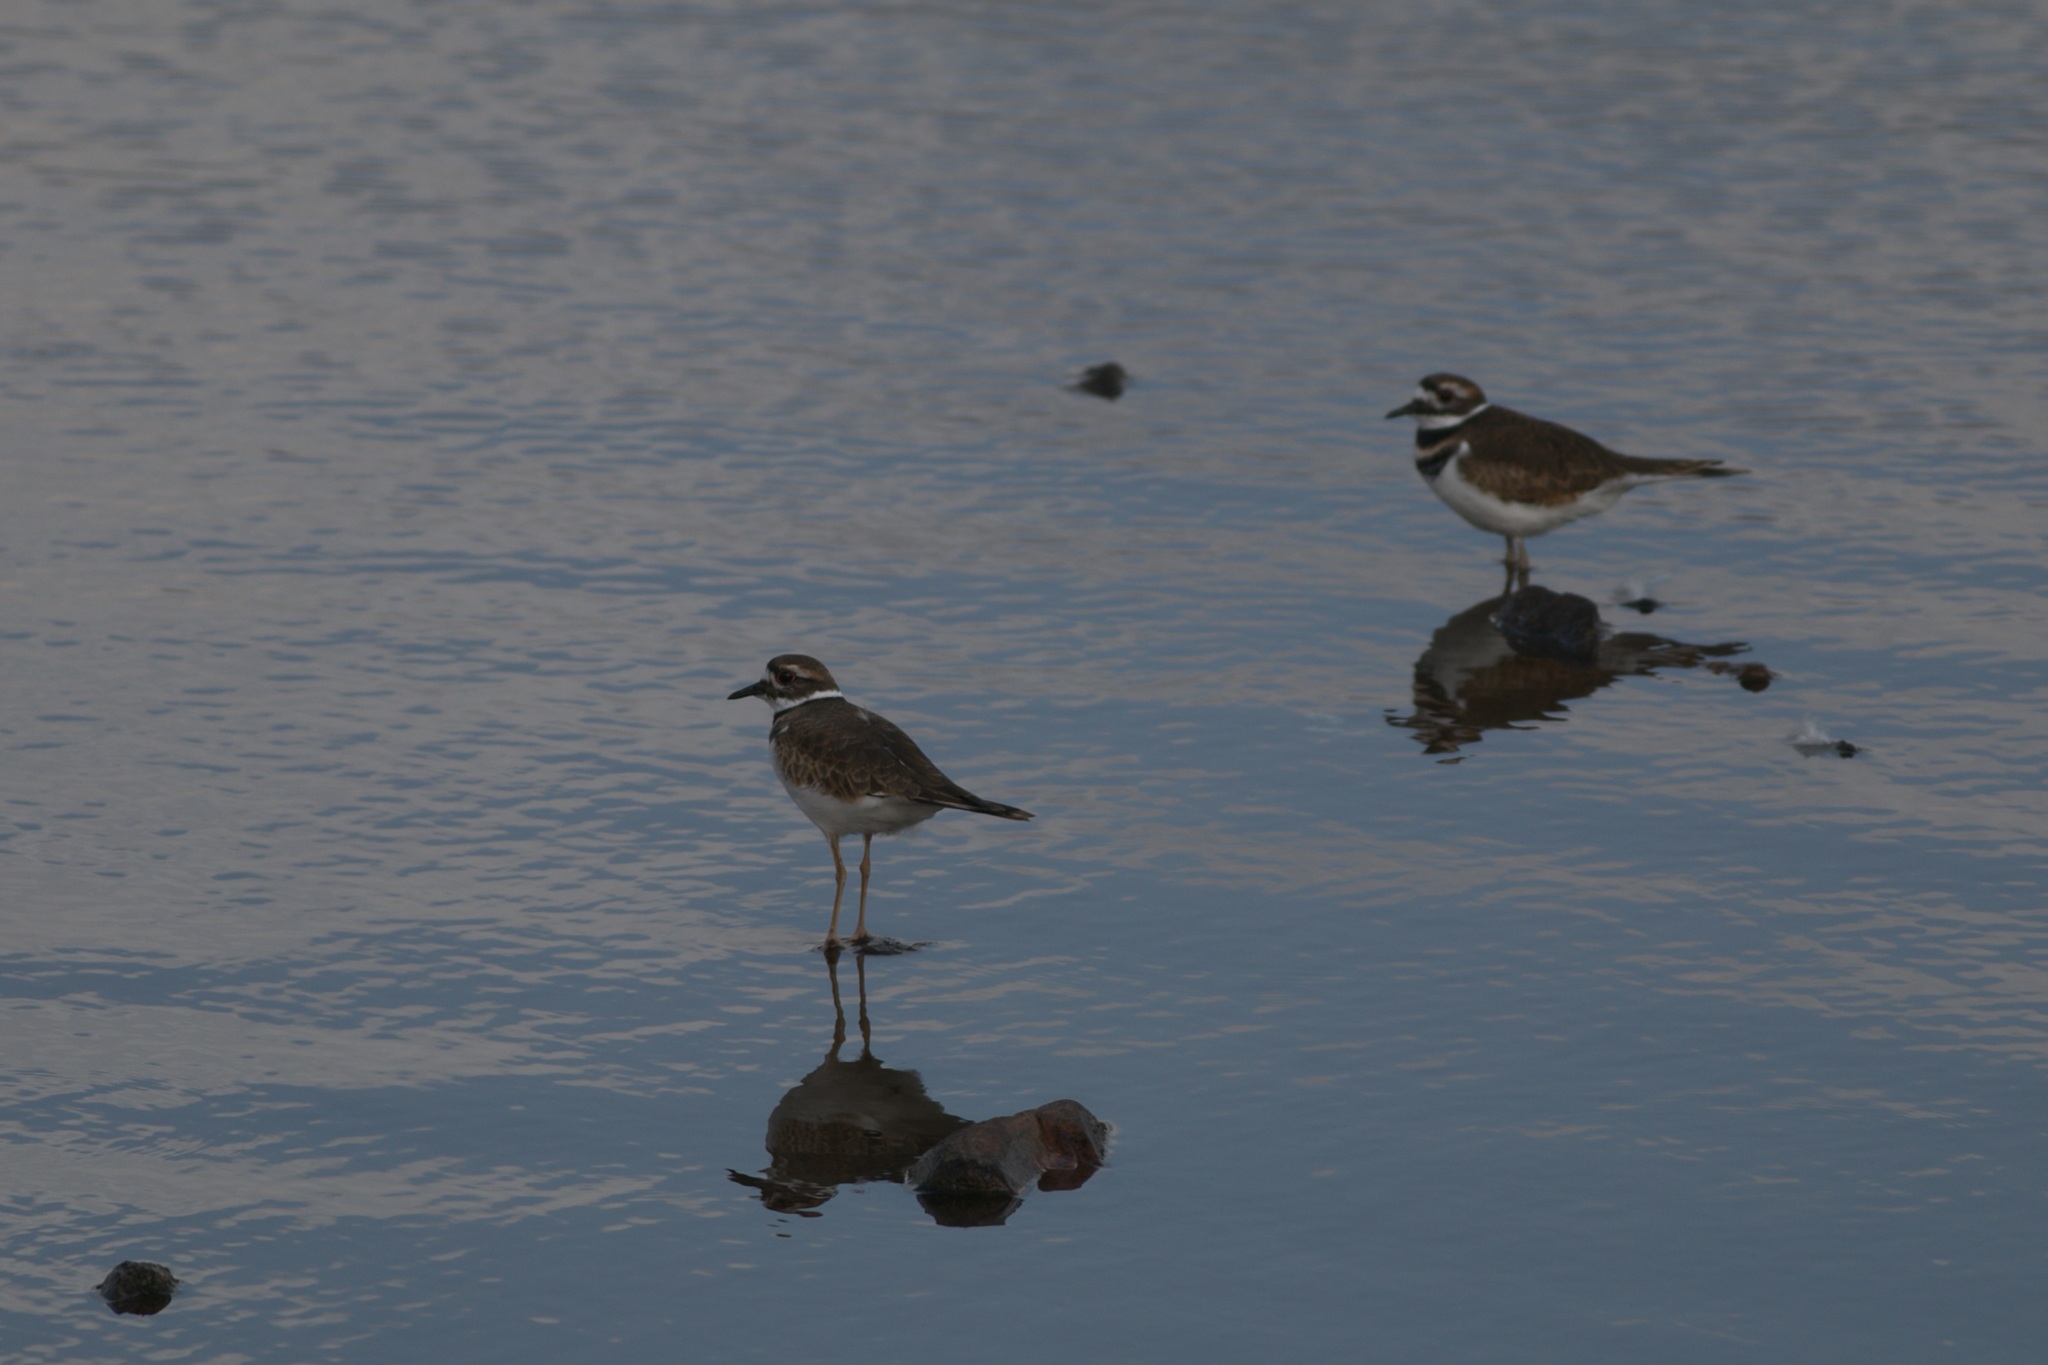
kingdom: Animalia
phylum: Chordata
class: Aves
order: Charadriiformes
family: Charadriidae
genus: Charadrius
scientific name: Charadrius vociferus
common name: Killdeer
